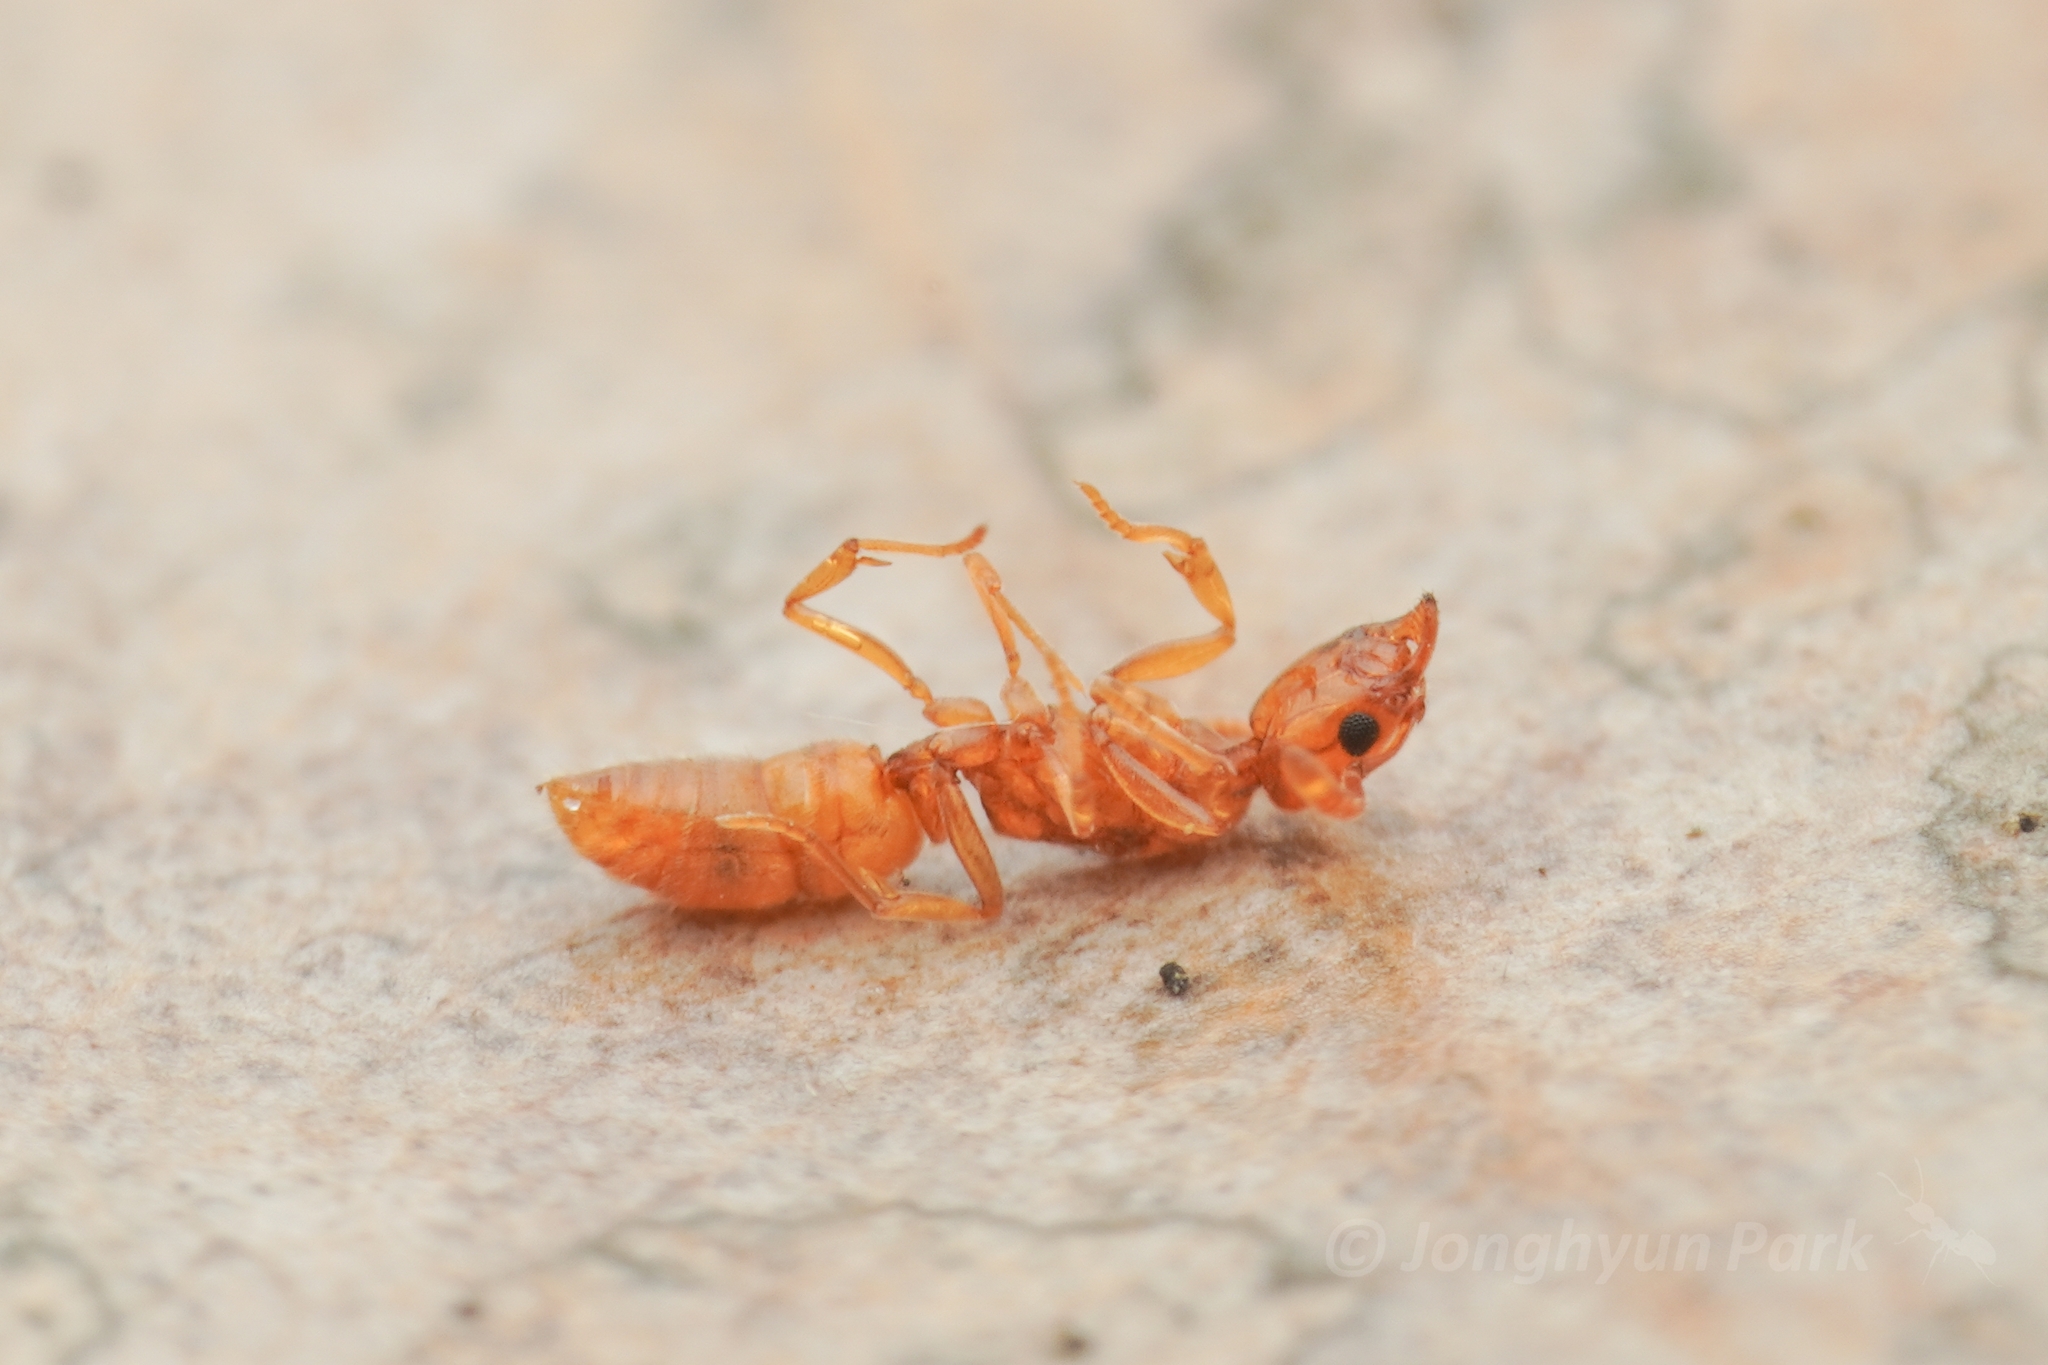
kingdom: Animalia
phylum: Arthropoda
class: Insecta
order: Hymenoptera
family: Formicidae
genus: Hypoponera
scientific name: Hypoponera sauteri
